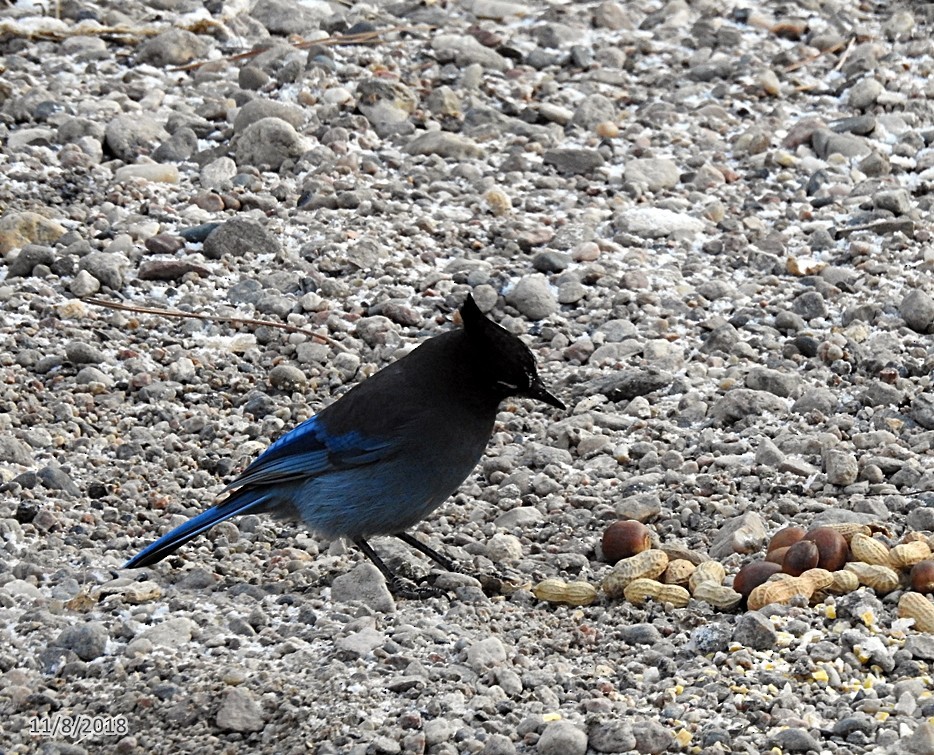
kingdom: Animalia
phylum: Chordata
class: Aves
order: Passeriformes
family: Corvidae
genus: Cyanocitta
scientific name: Cyanocitta stelleri
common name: Steller's jay
